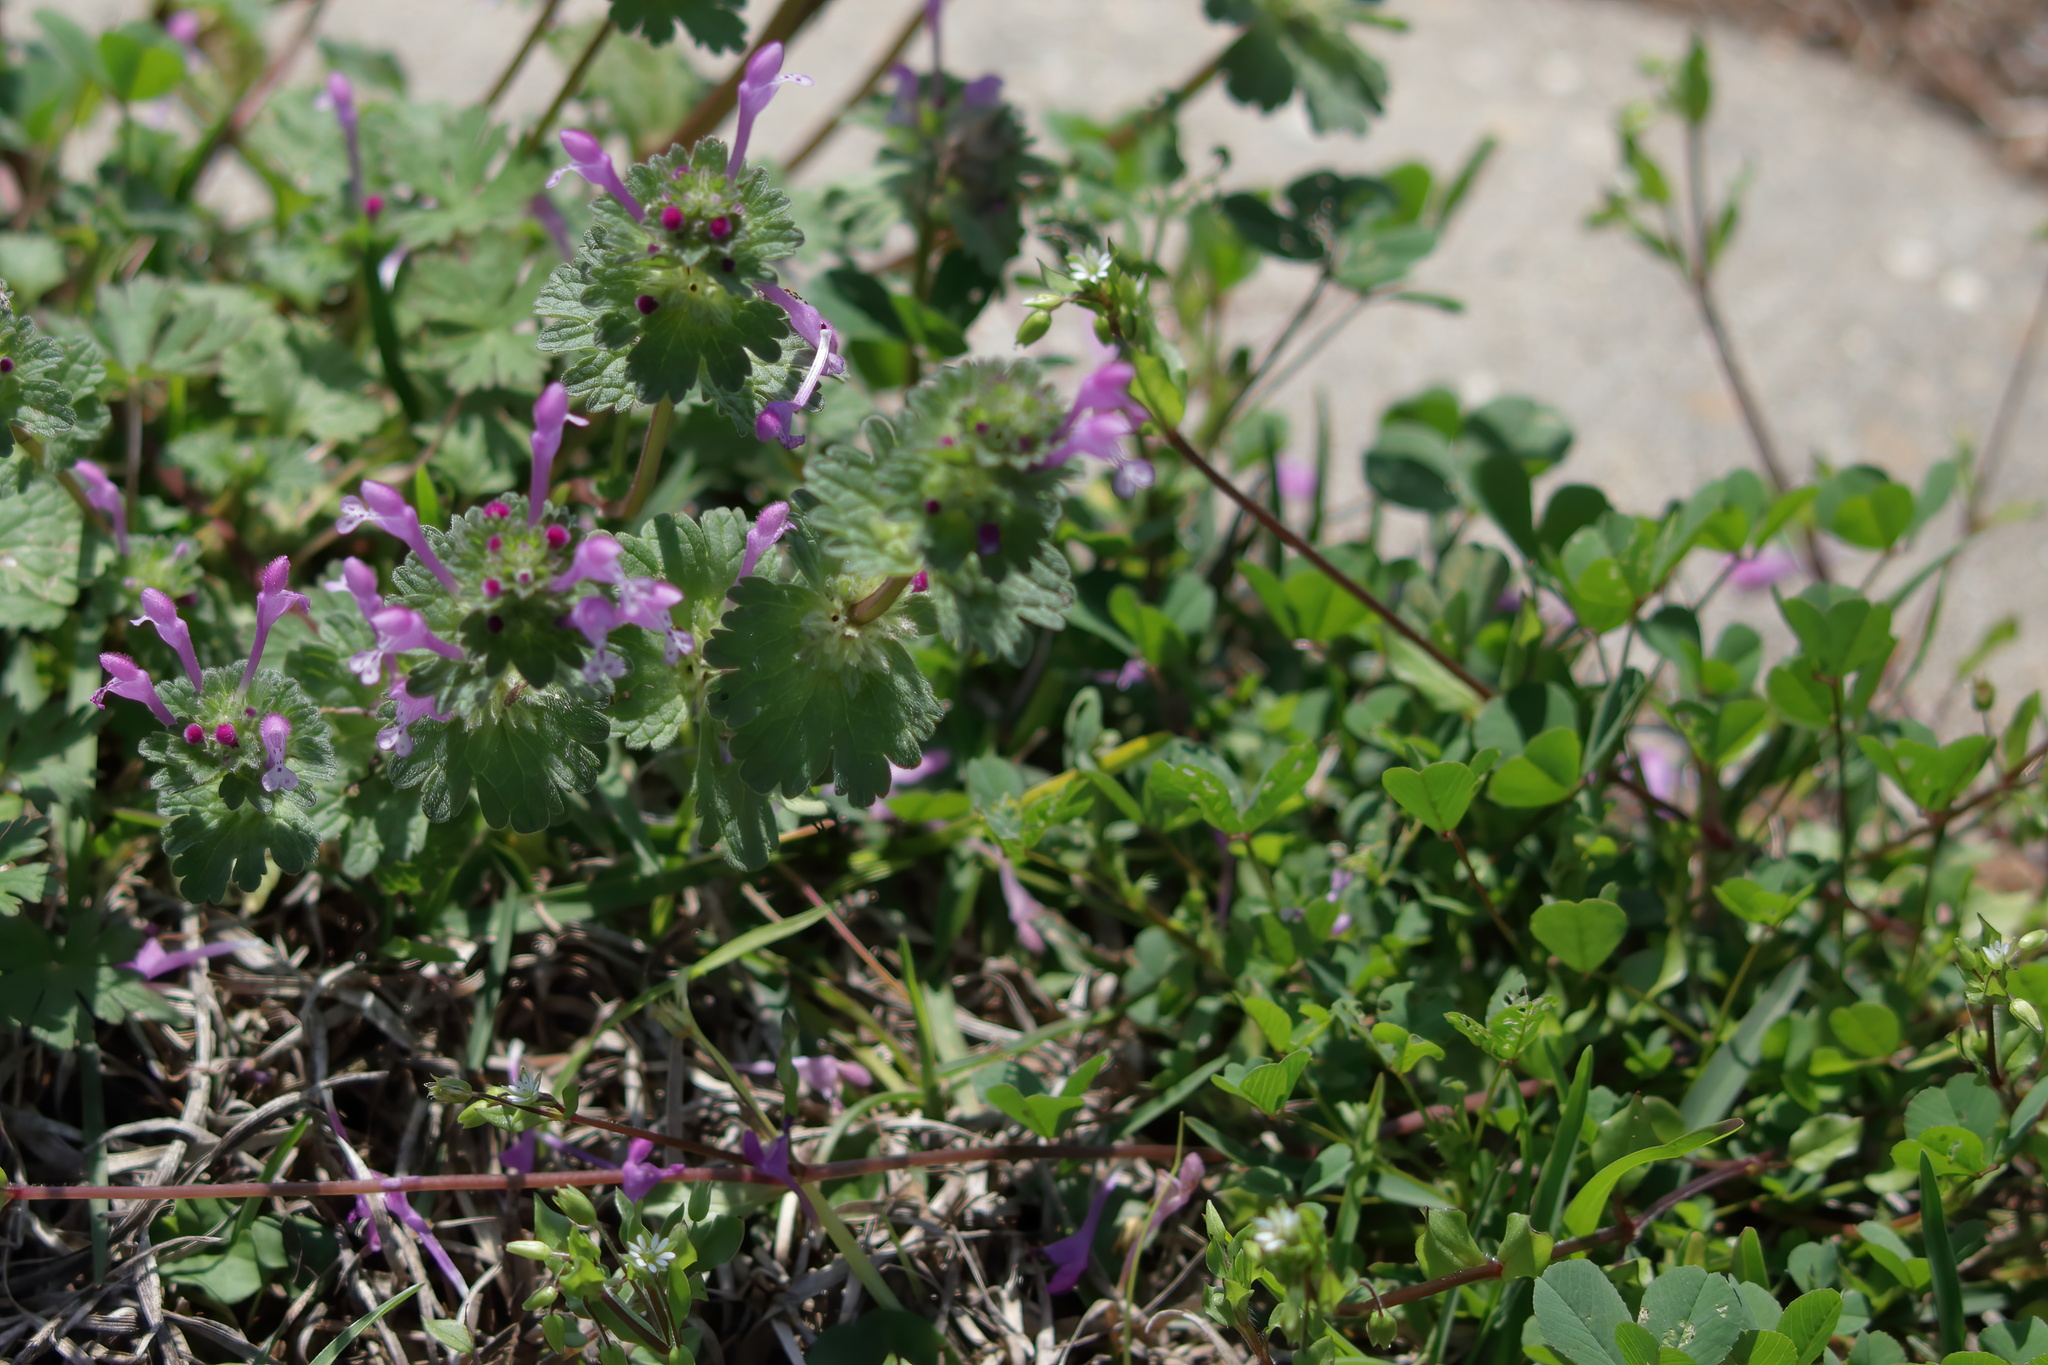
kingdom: Plantae
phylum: Tracheophyta
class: Magnoliopsida
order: Lamiales
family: Lamiaceae
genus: Lamium
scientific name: Lamium amplexicaule
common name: Henbit dead-nettle
